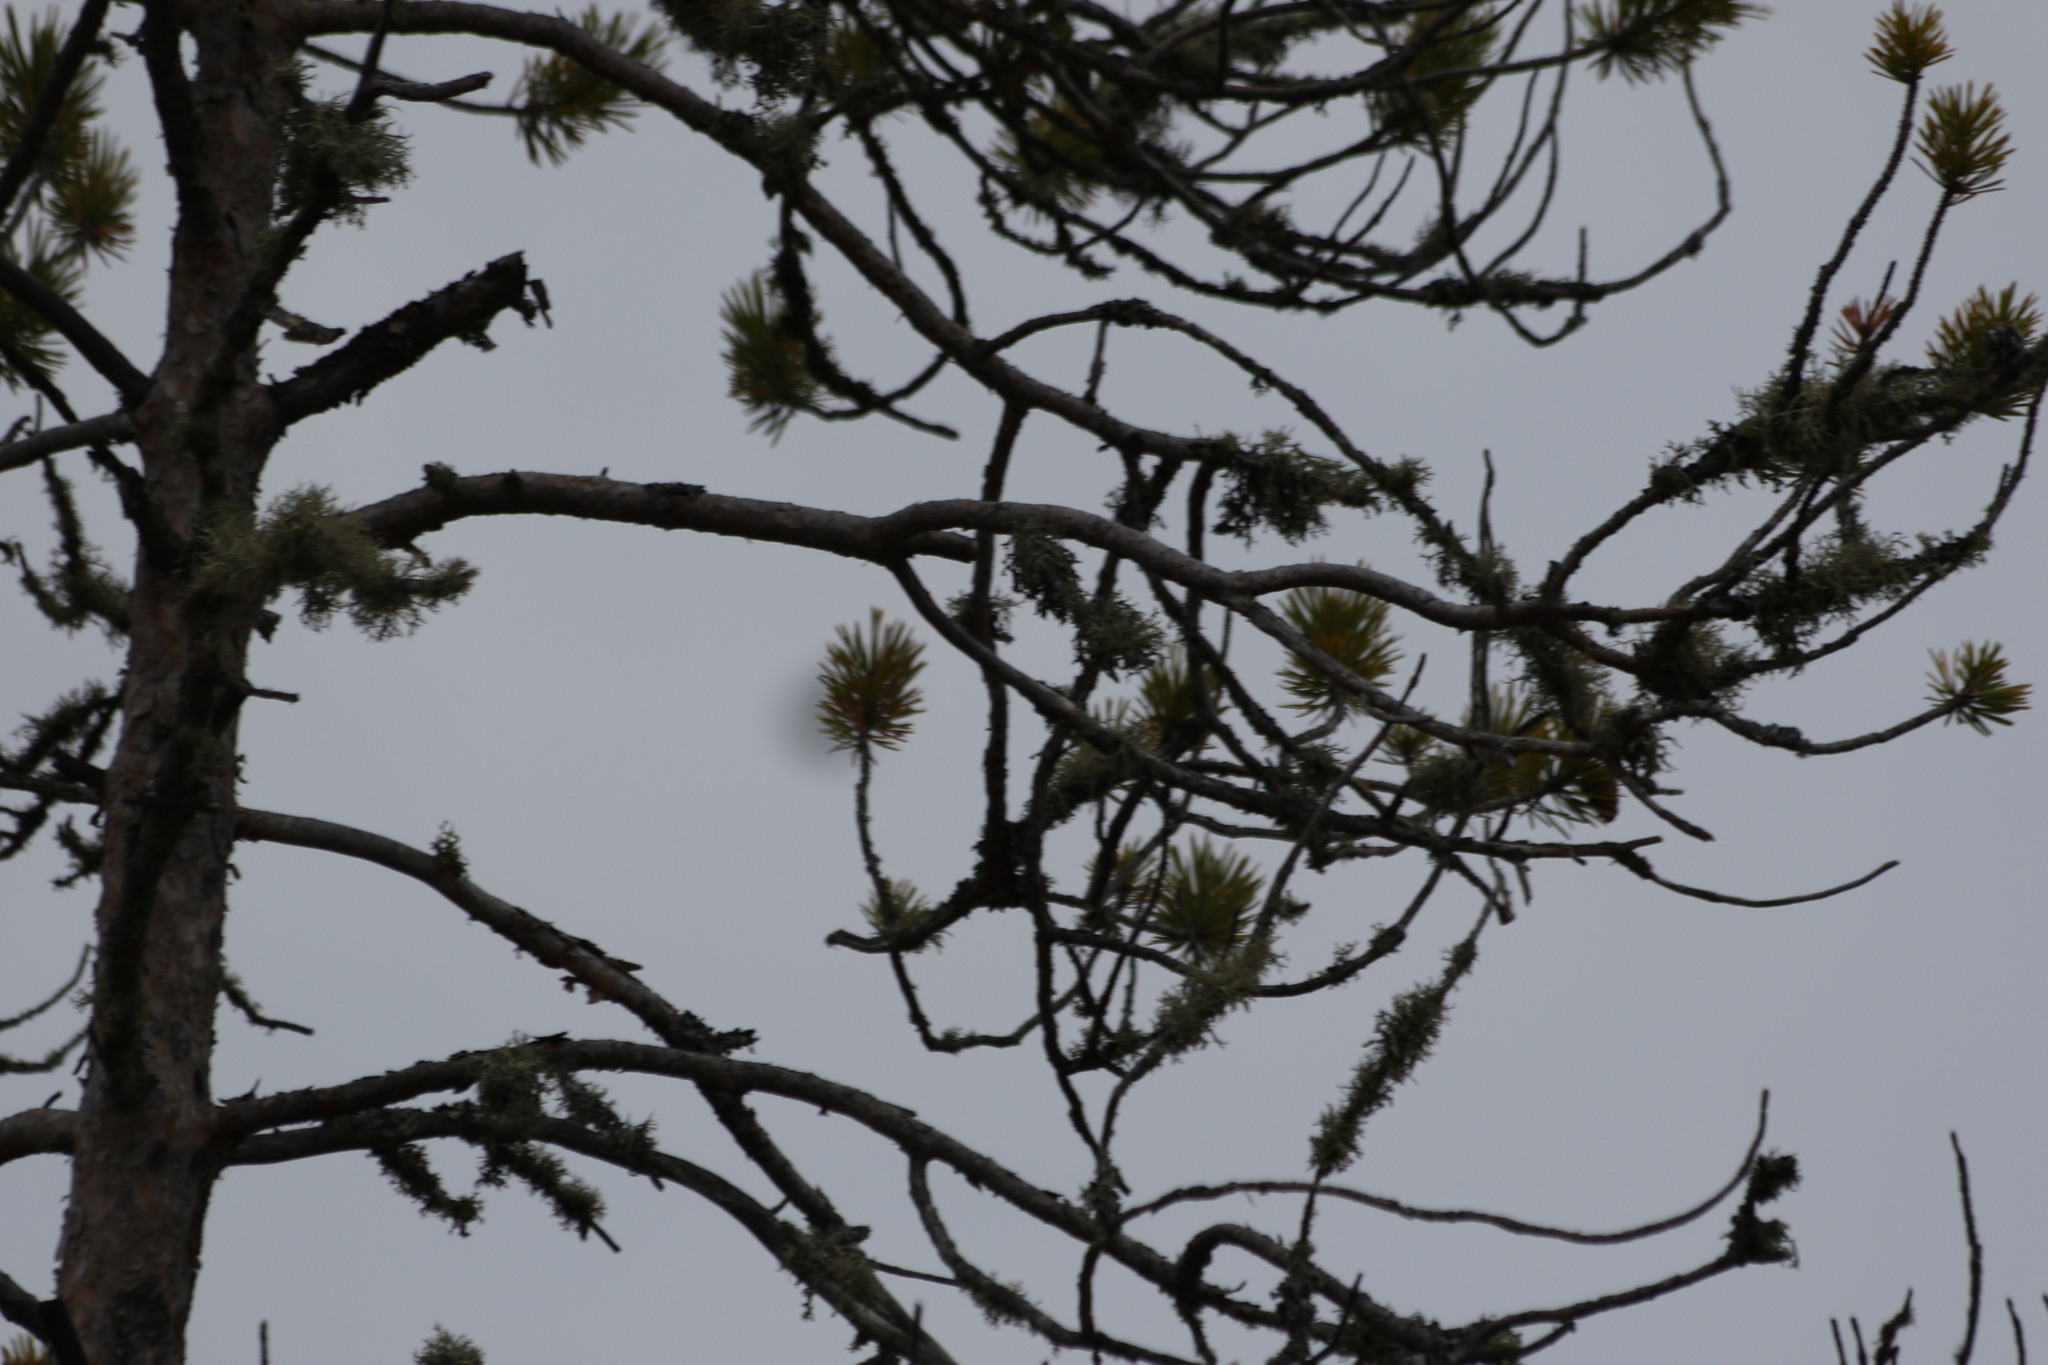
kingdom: Plantae
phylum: Tracheophyta
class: Pinopsida
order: Pinales
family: Pinaceae
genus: Pinus
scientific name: Pinus sylvestris
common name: Scots pine
